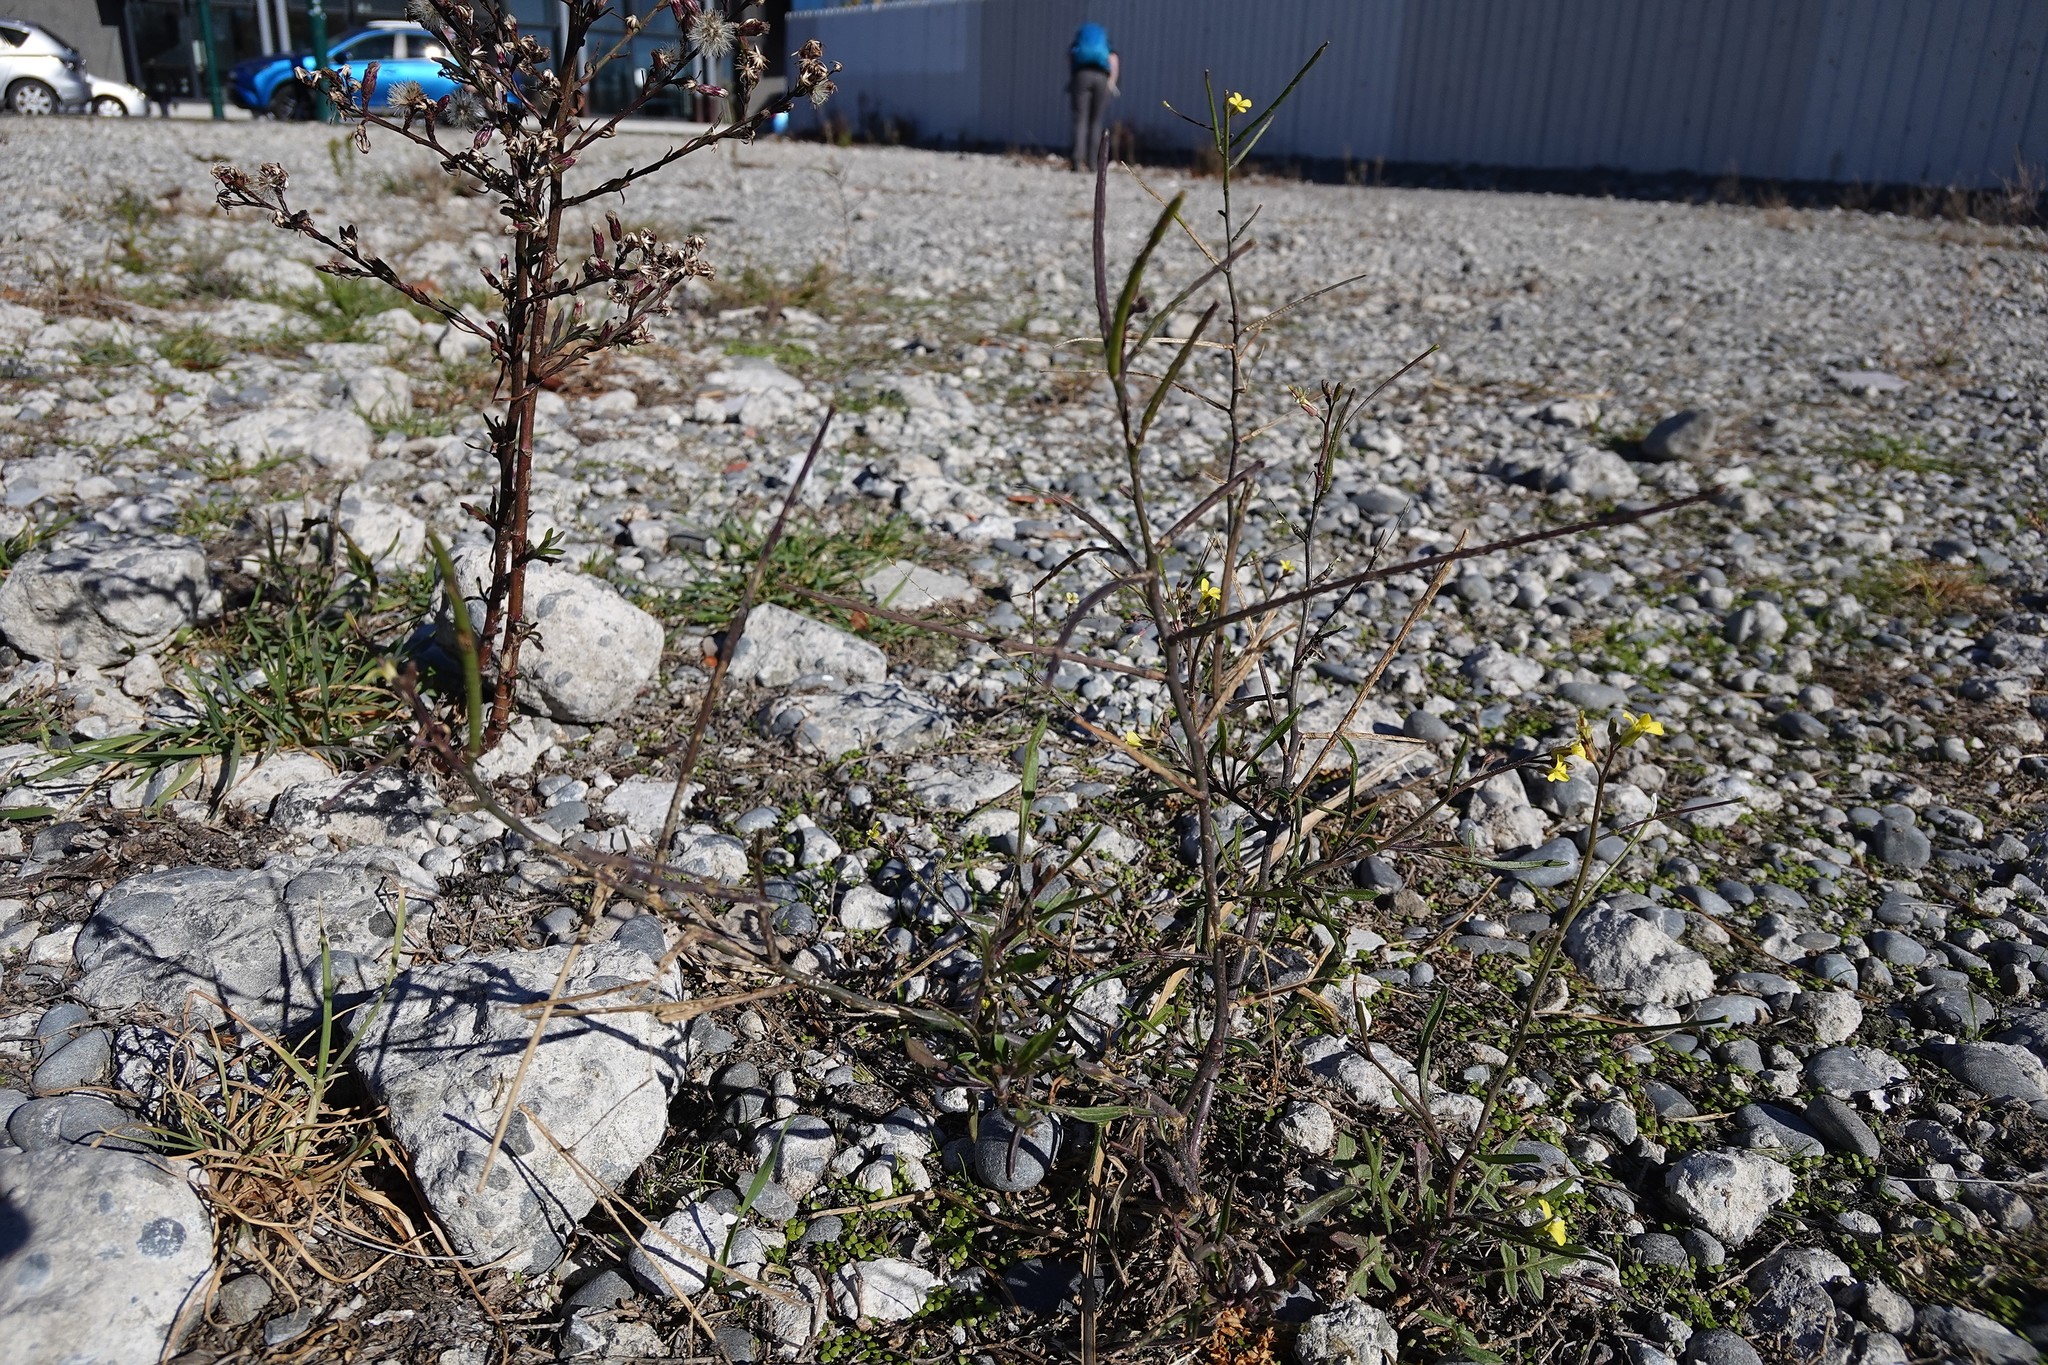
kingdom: Plantae
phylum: Tracheophyta
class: Magnoliopsida
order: Brassicales
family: Brassicaceae
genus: Sisymbrium
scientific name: Sisymbrium orientale
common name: Eastern rocket
